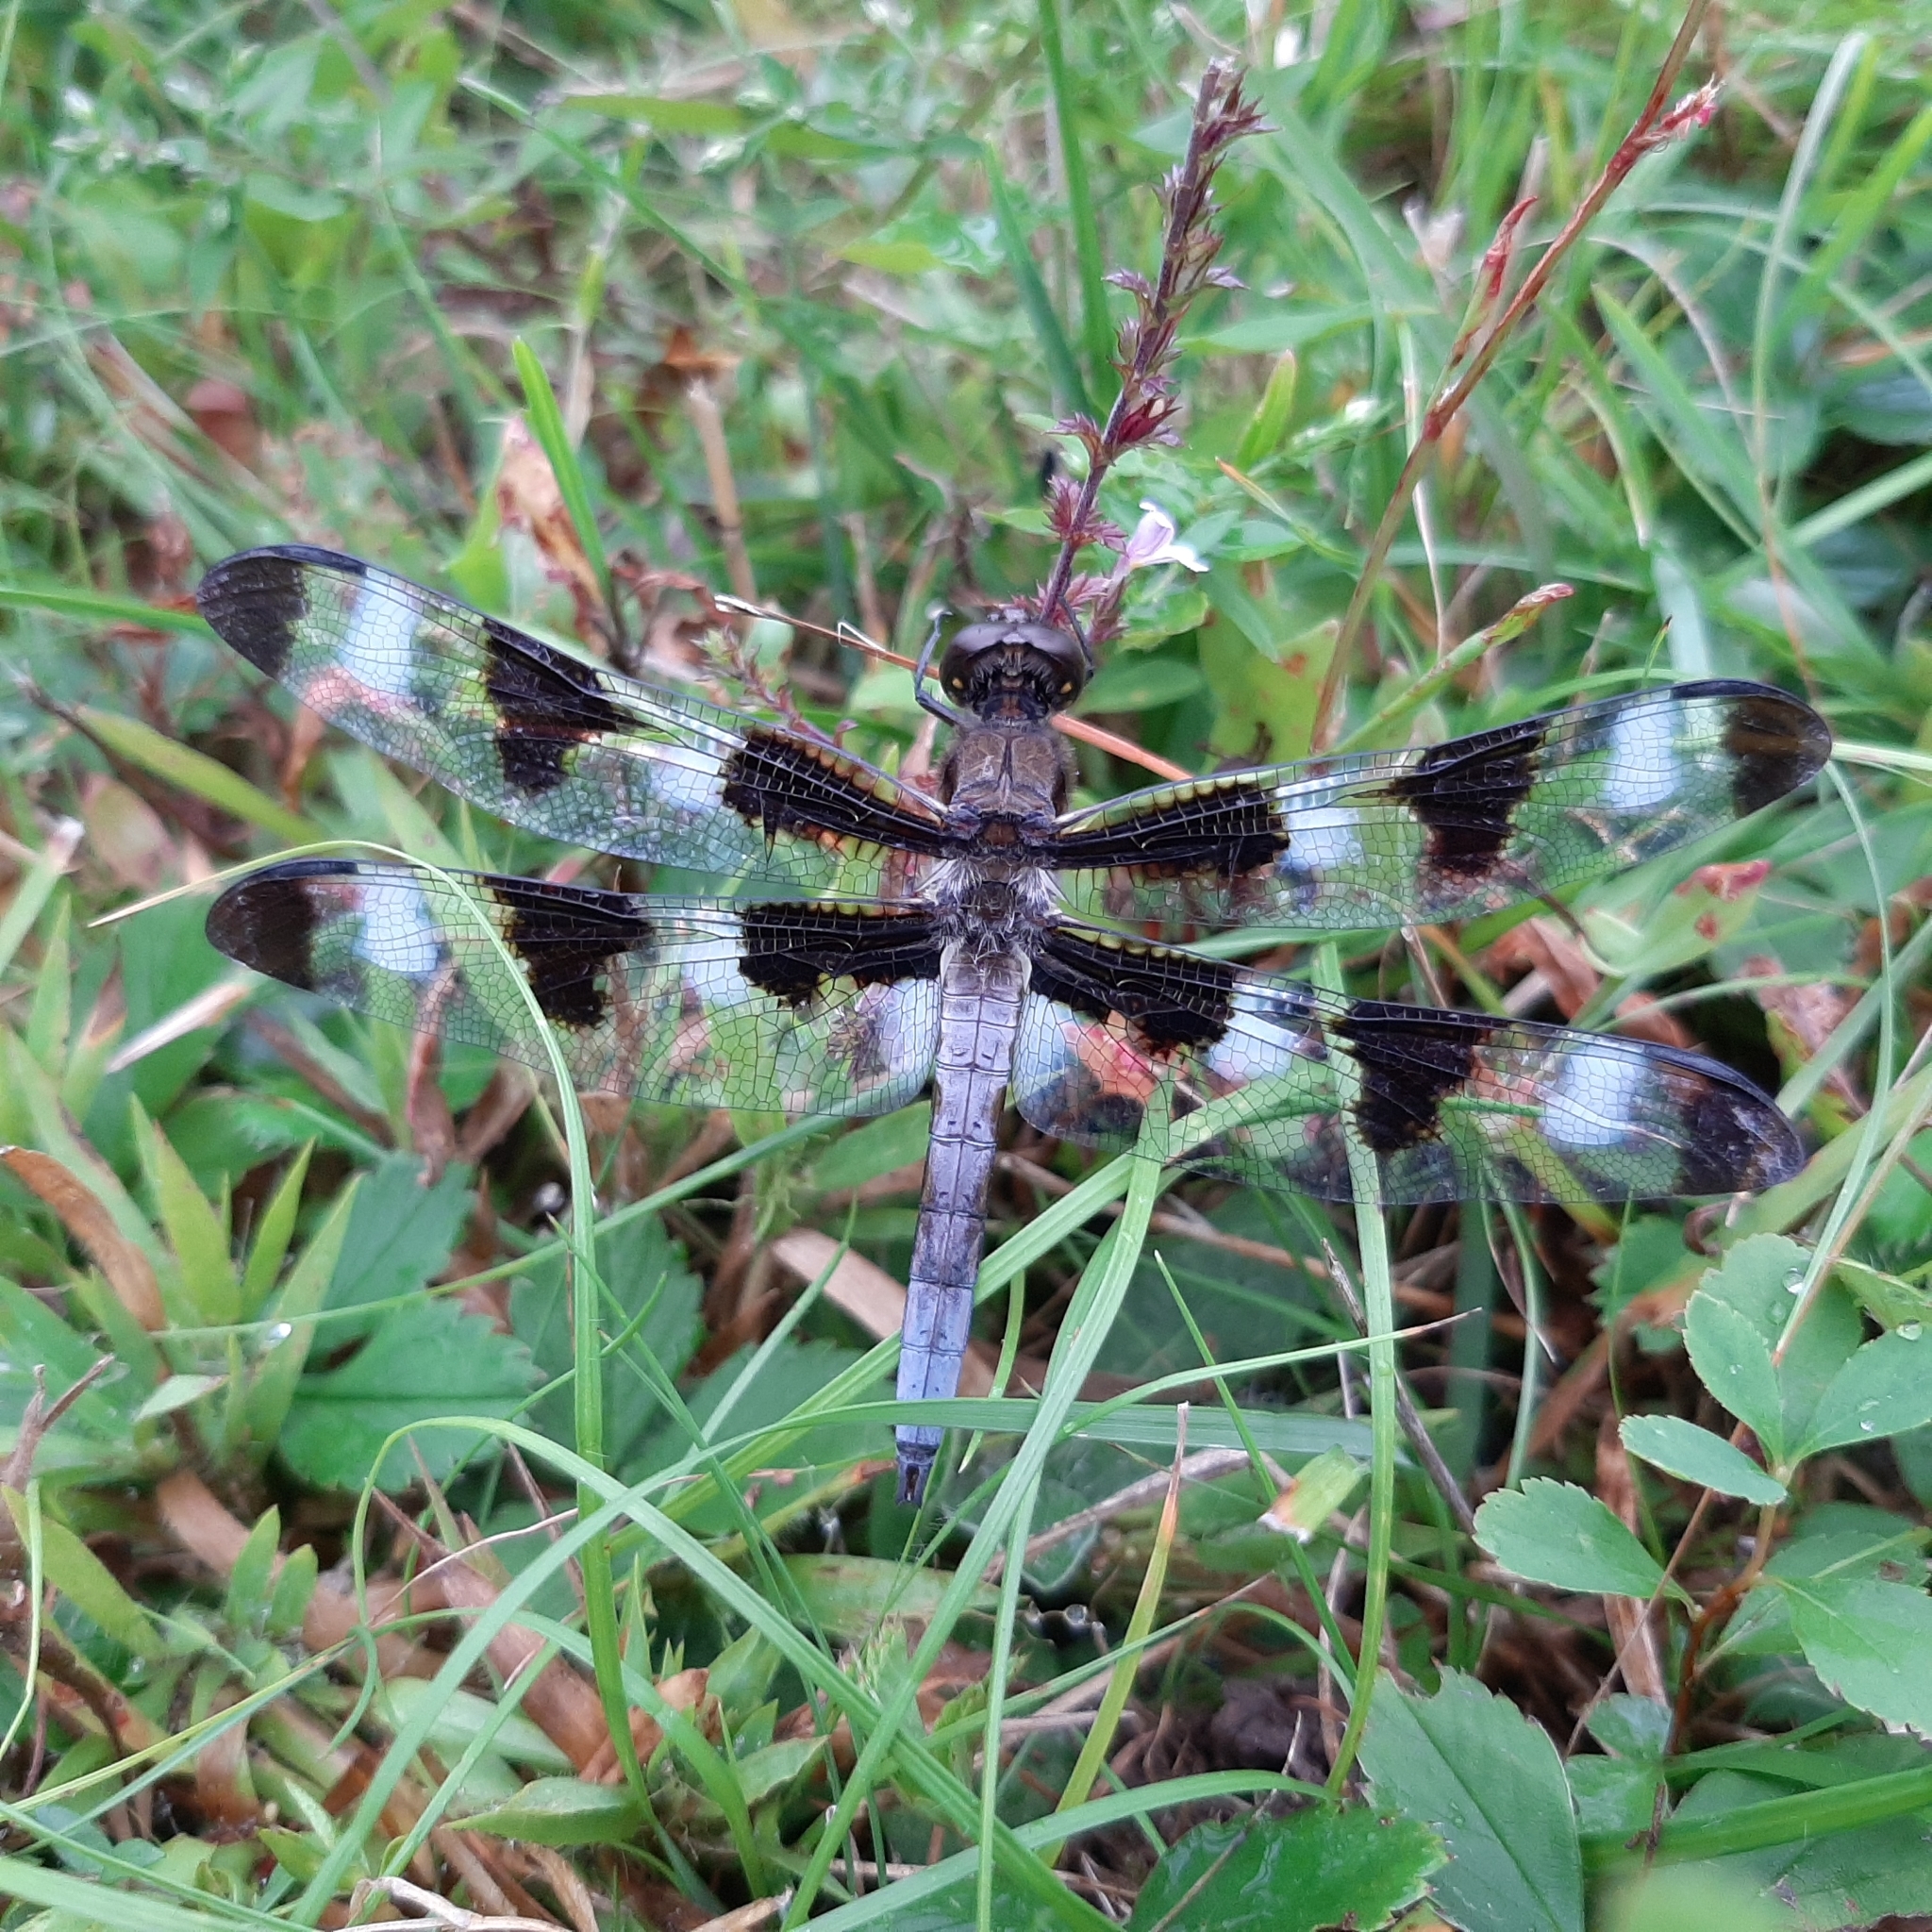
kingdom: Animalia
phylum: Arthropoda
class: Insecta
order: Odonata
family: Libellulidae
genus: Libellula
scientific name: Libellula pulchella
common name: Twelve-spotted skimmer
